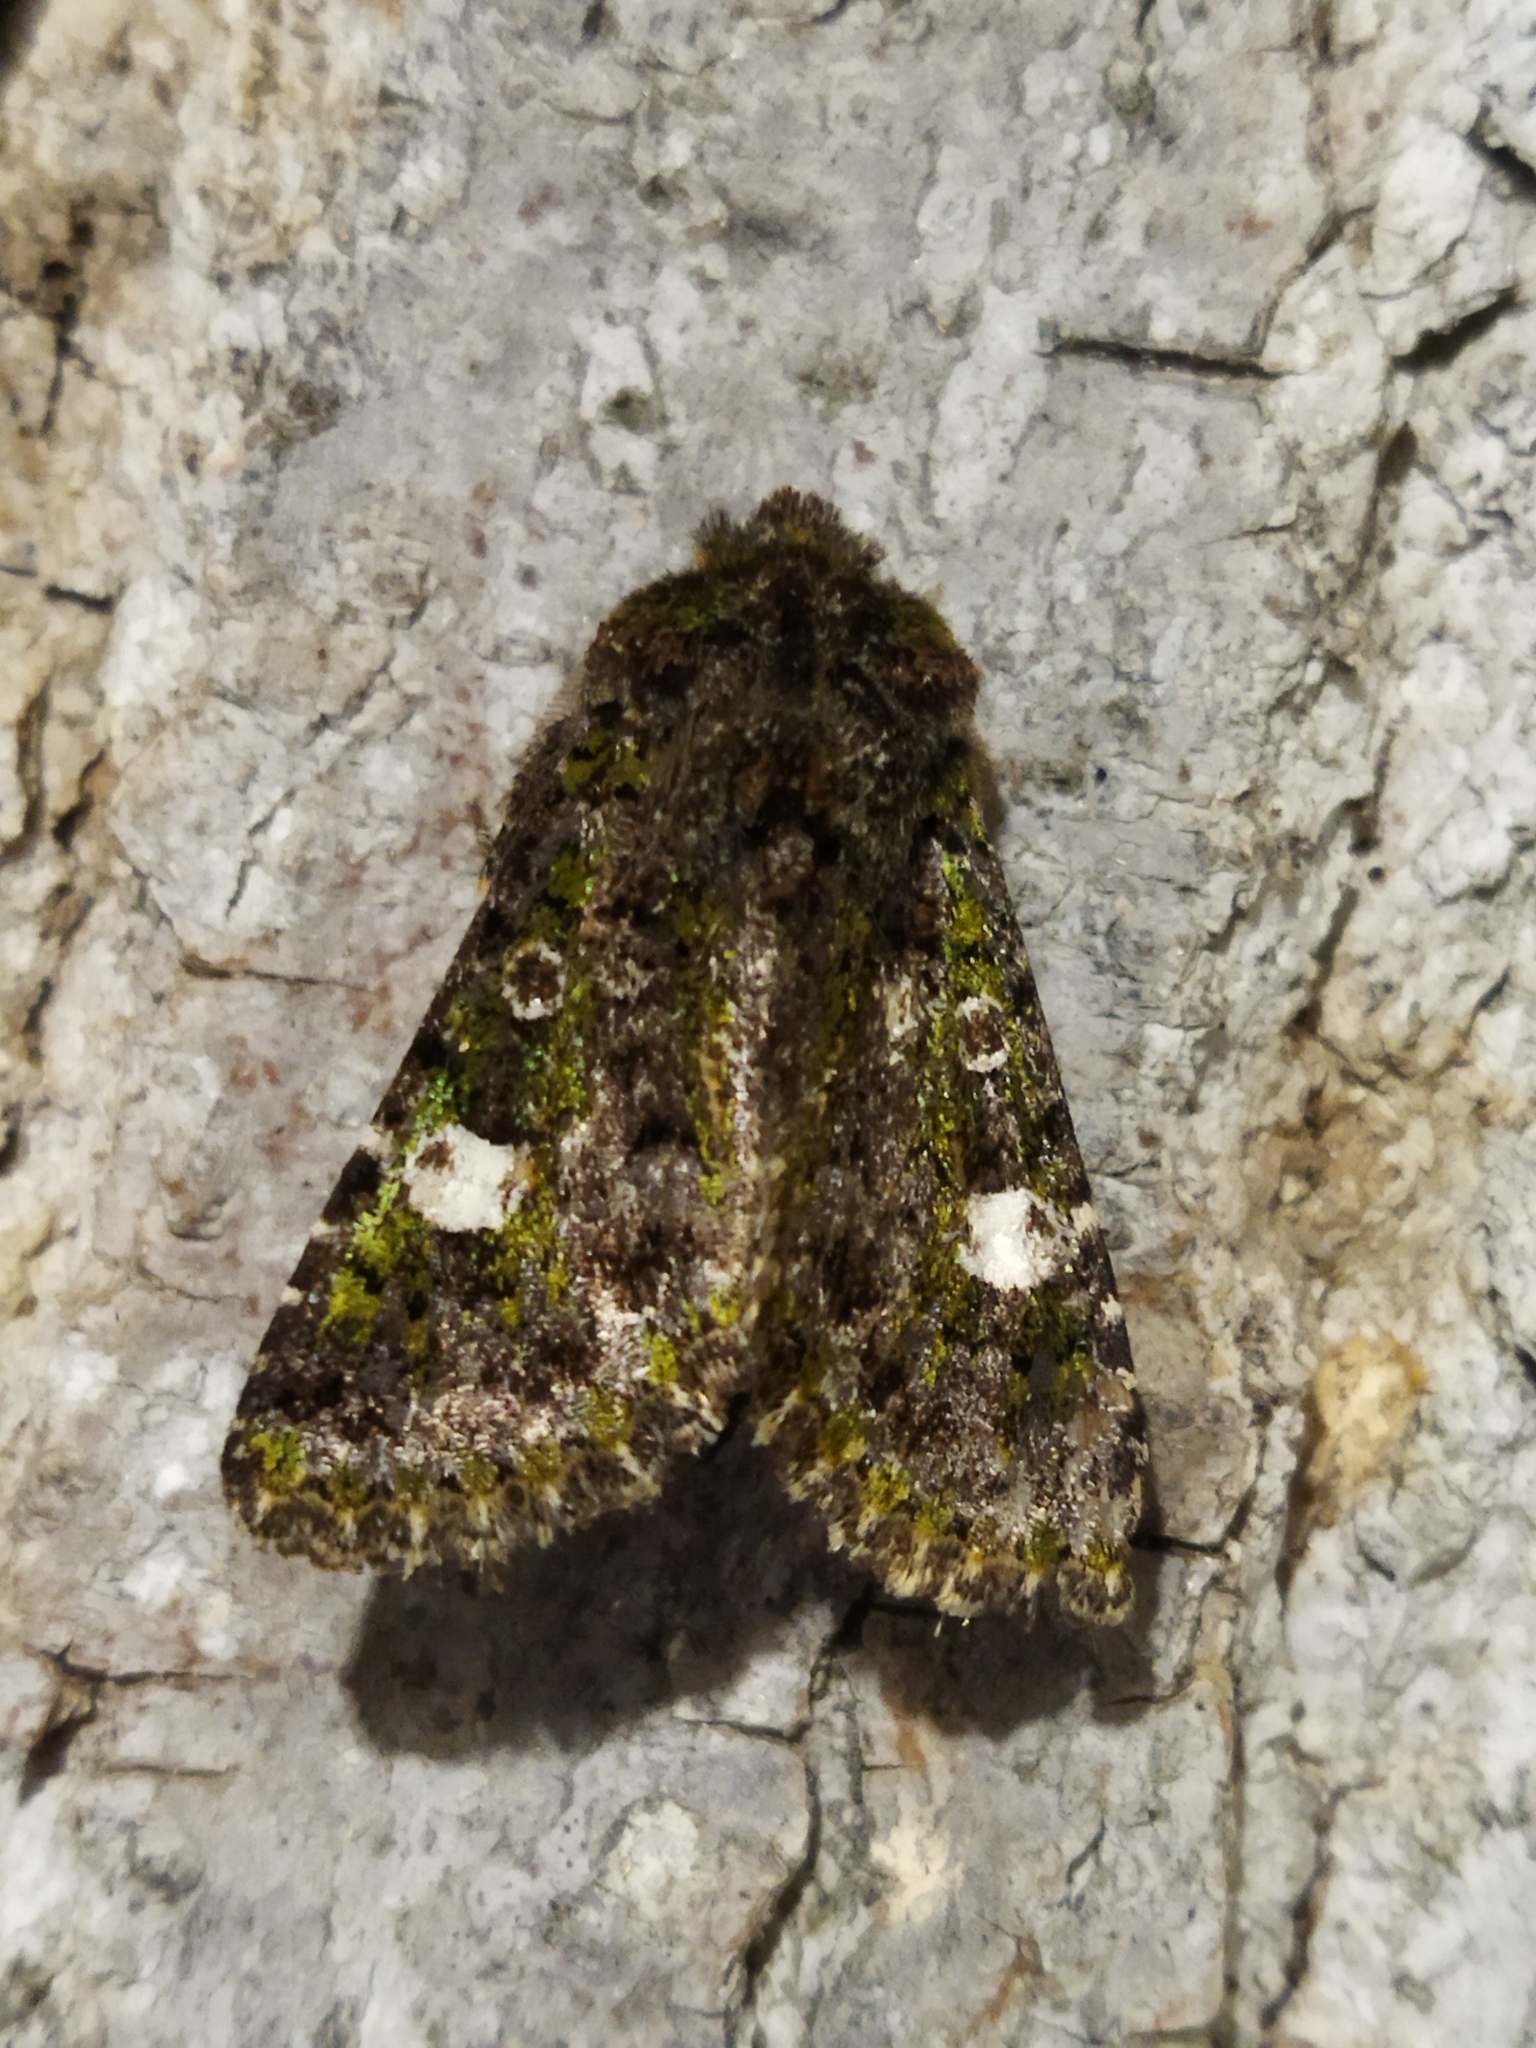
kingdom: Animalia
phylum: Arthropoda
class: Insecta
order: Lepidoptera
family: Noctuidae
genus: Valeria
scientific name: Valeria oleagina
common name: Green-brindled dot
